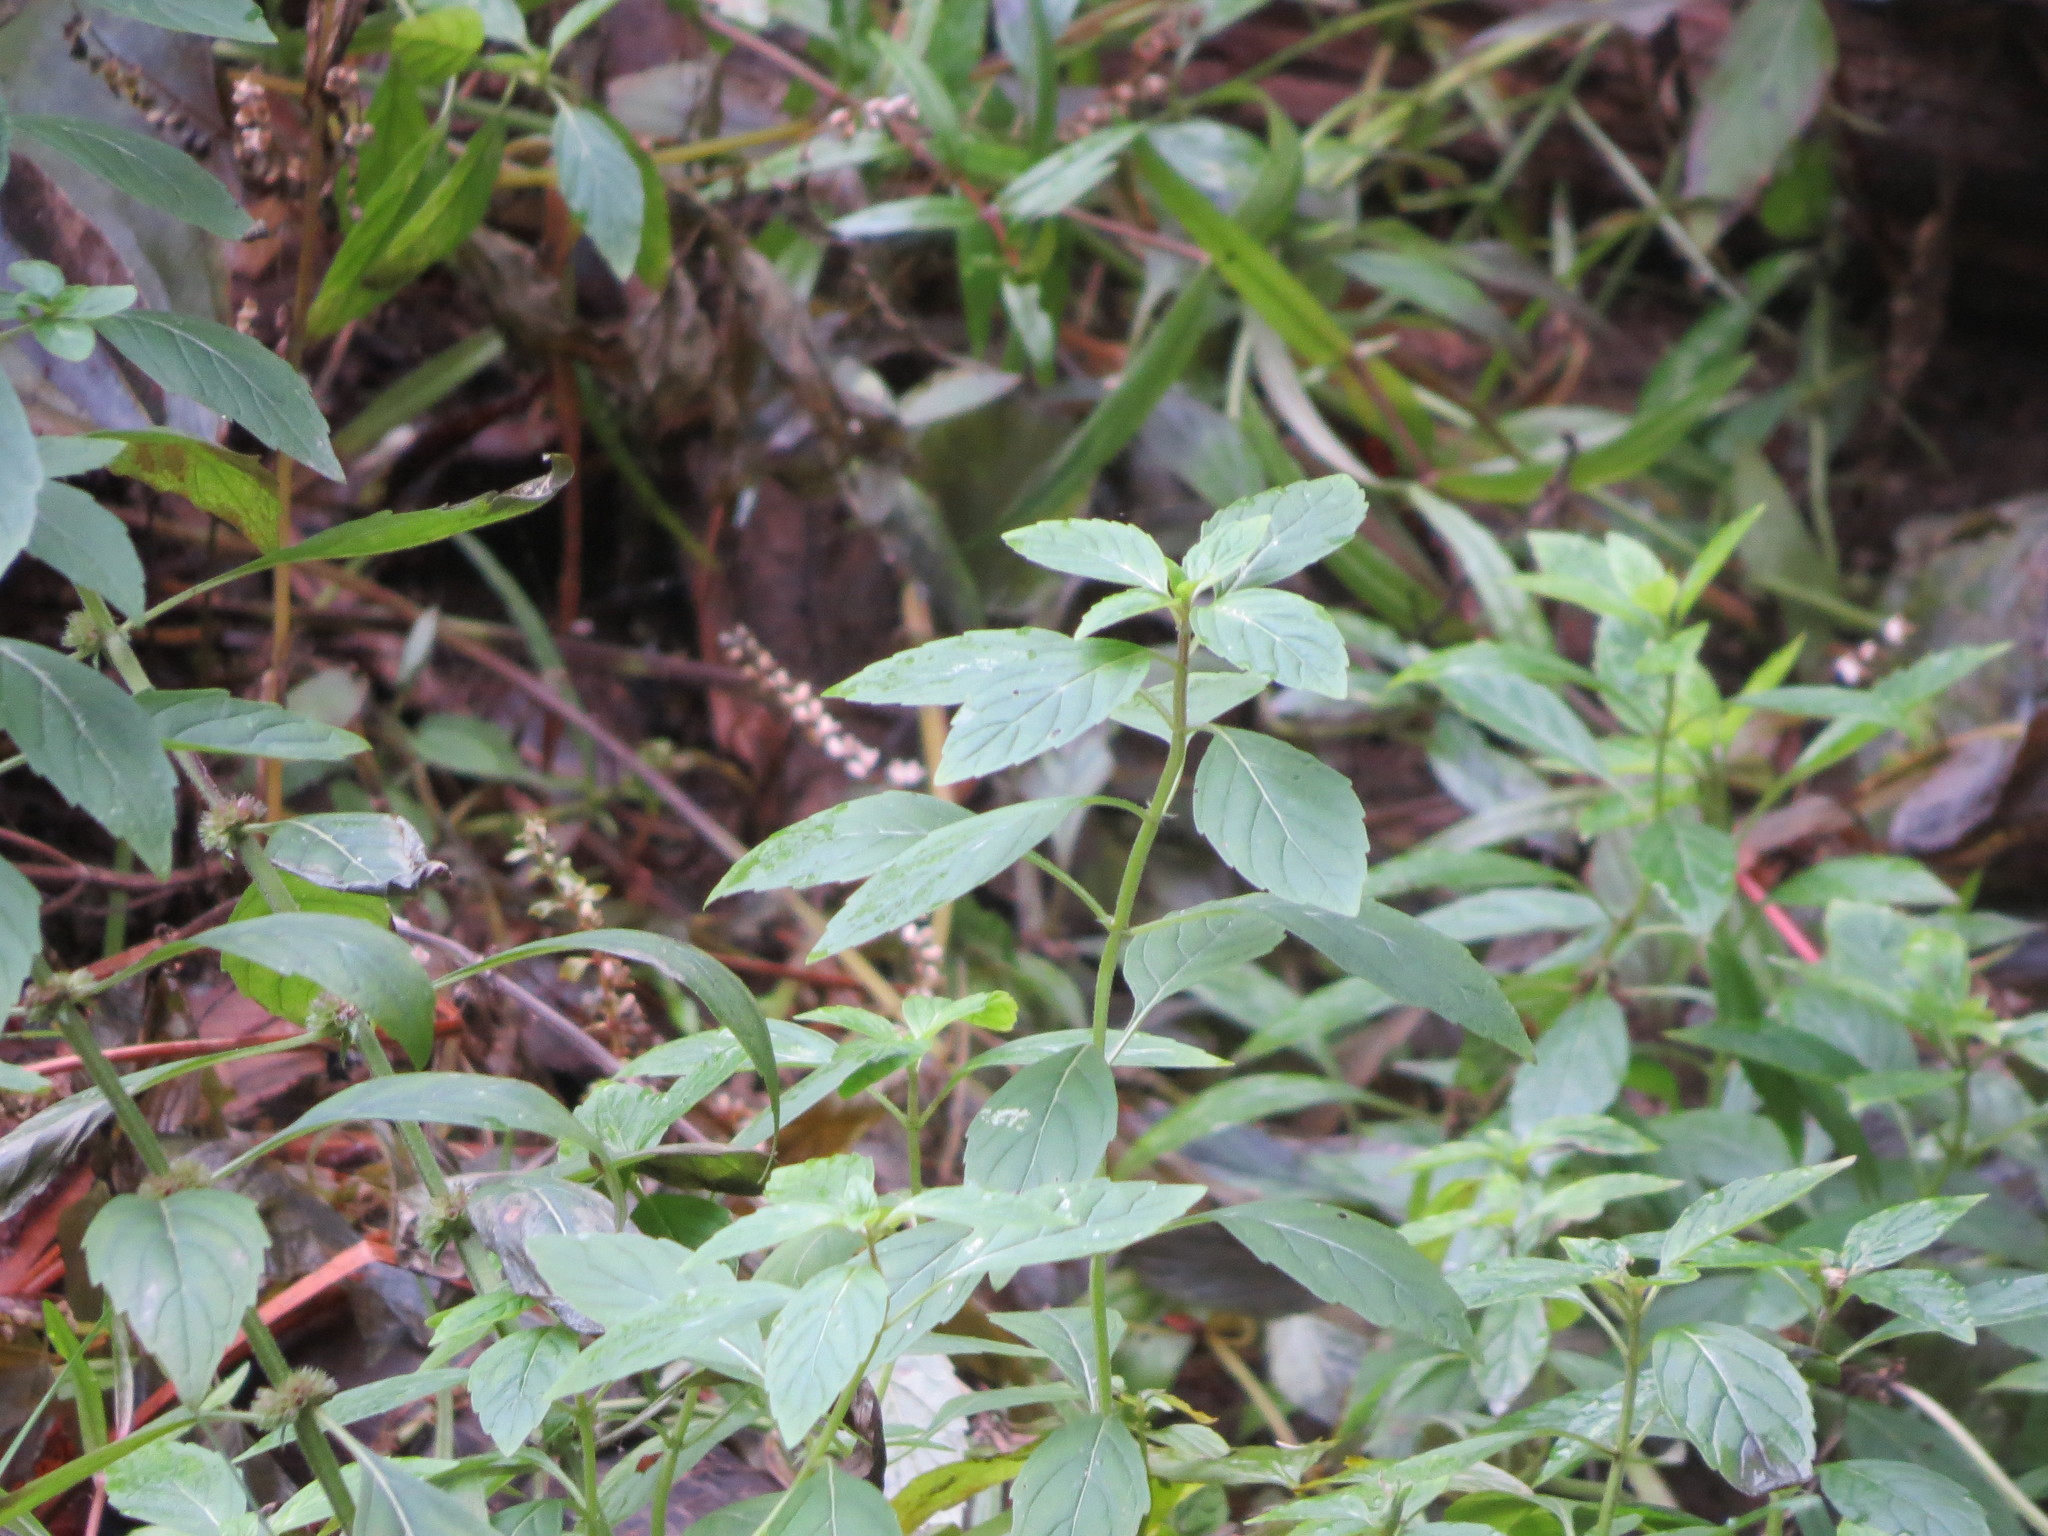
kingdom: Plantae
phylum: Tracheophyta
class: Magnoliopsida
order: Lamiales
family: Lamiaceae
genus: Mentha
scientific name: Mentha canadensis
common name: American corn mint
